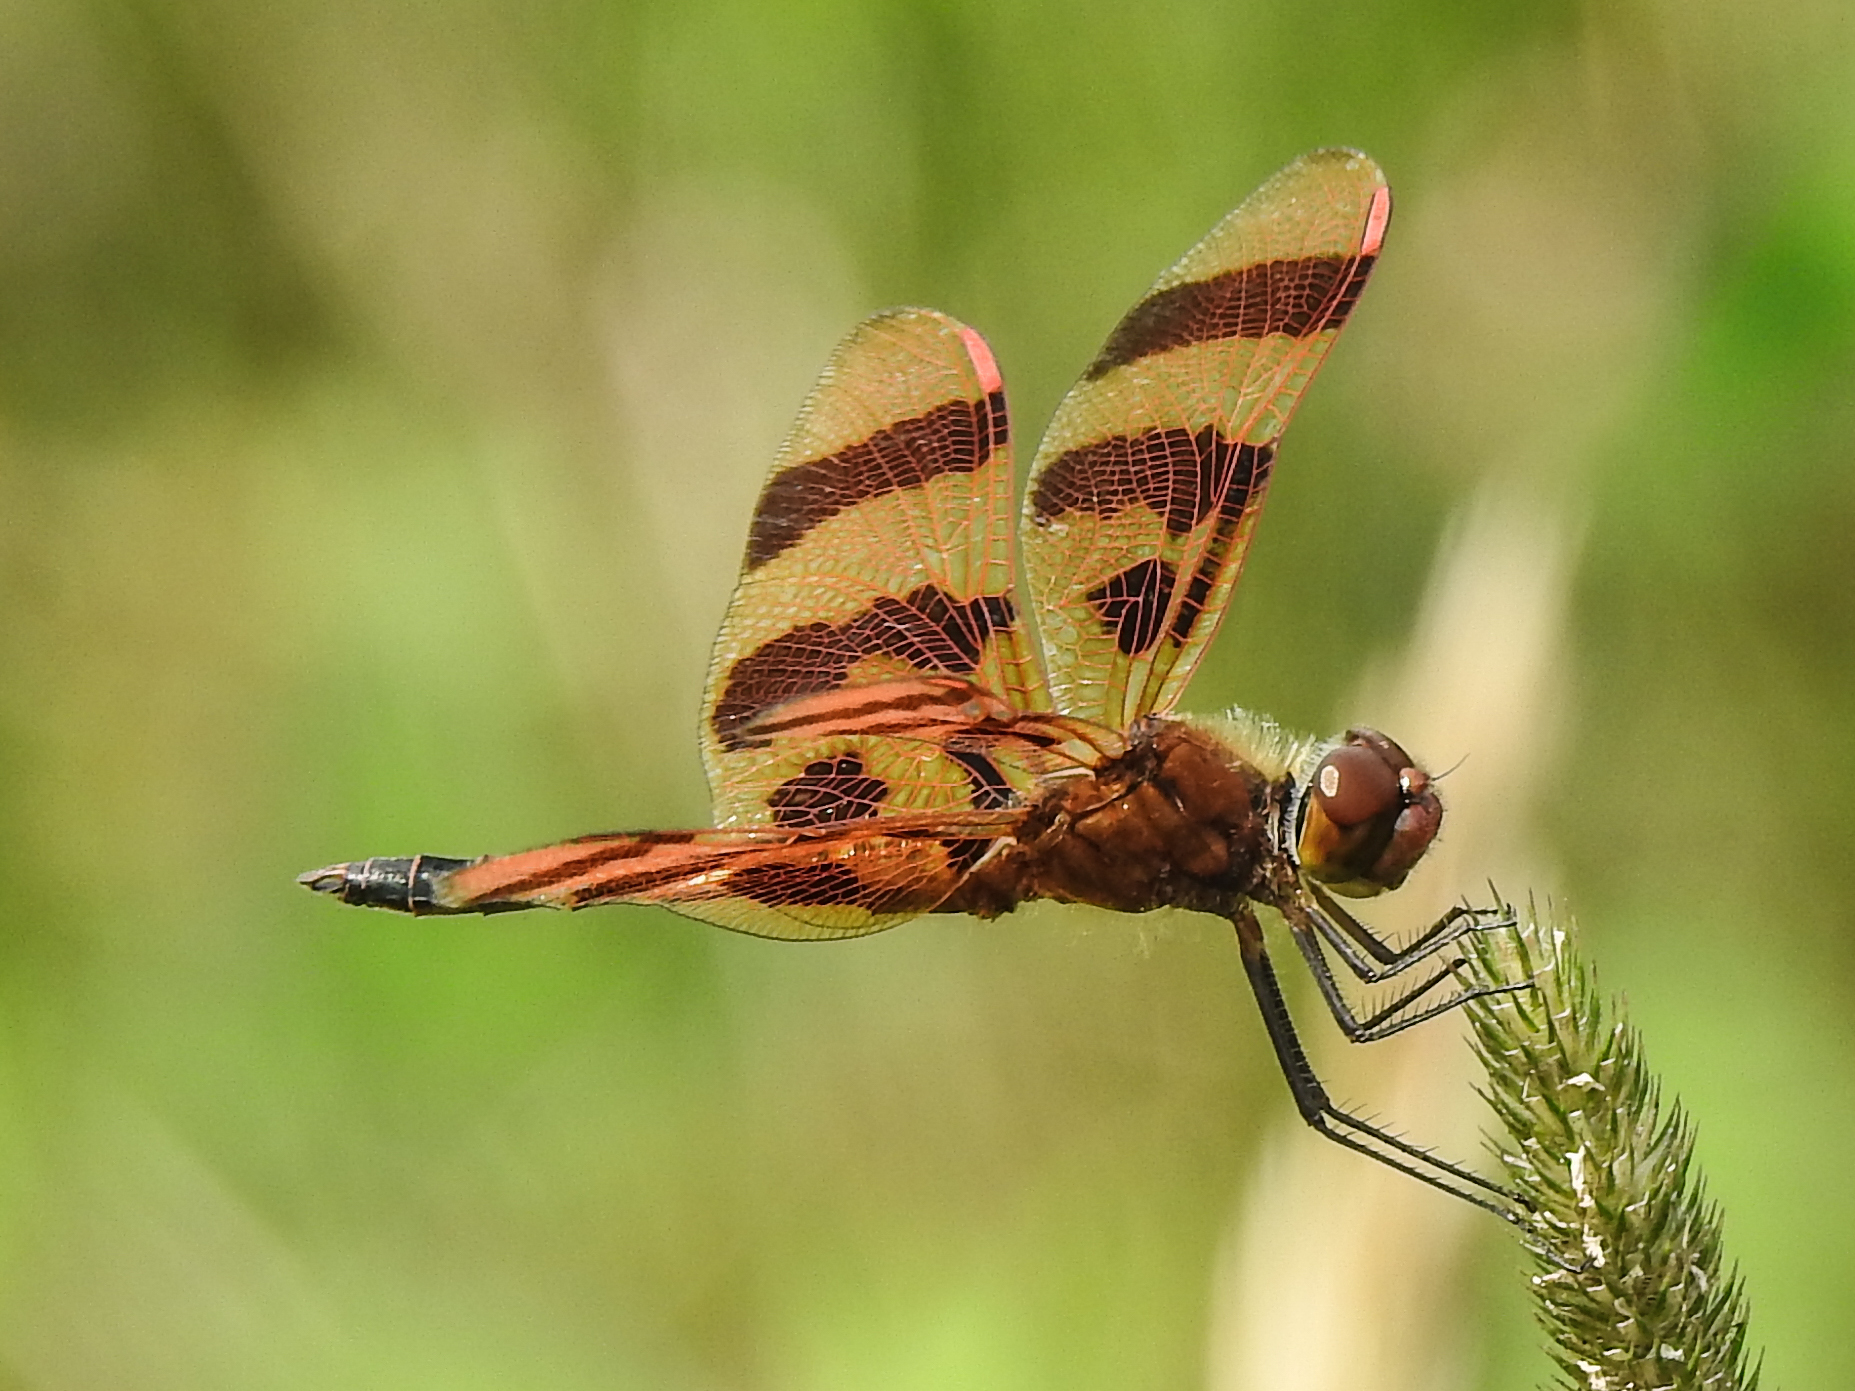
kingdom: Animalia
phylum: Arthropoda
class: Insecta
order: Odonata
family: Libellulidae
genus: Celithemis
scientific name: Celithemis eponina
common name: Halloween pennant
